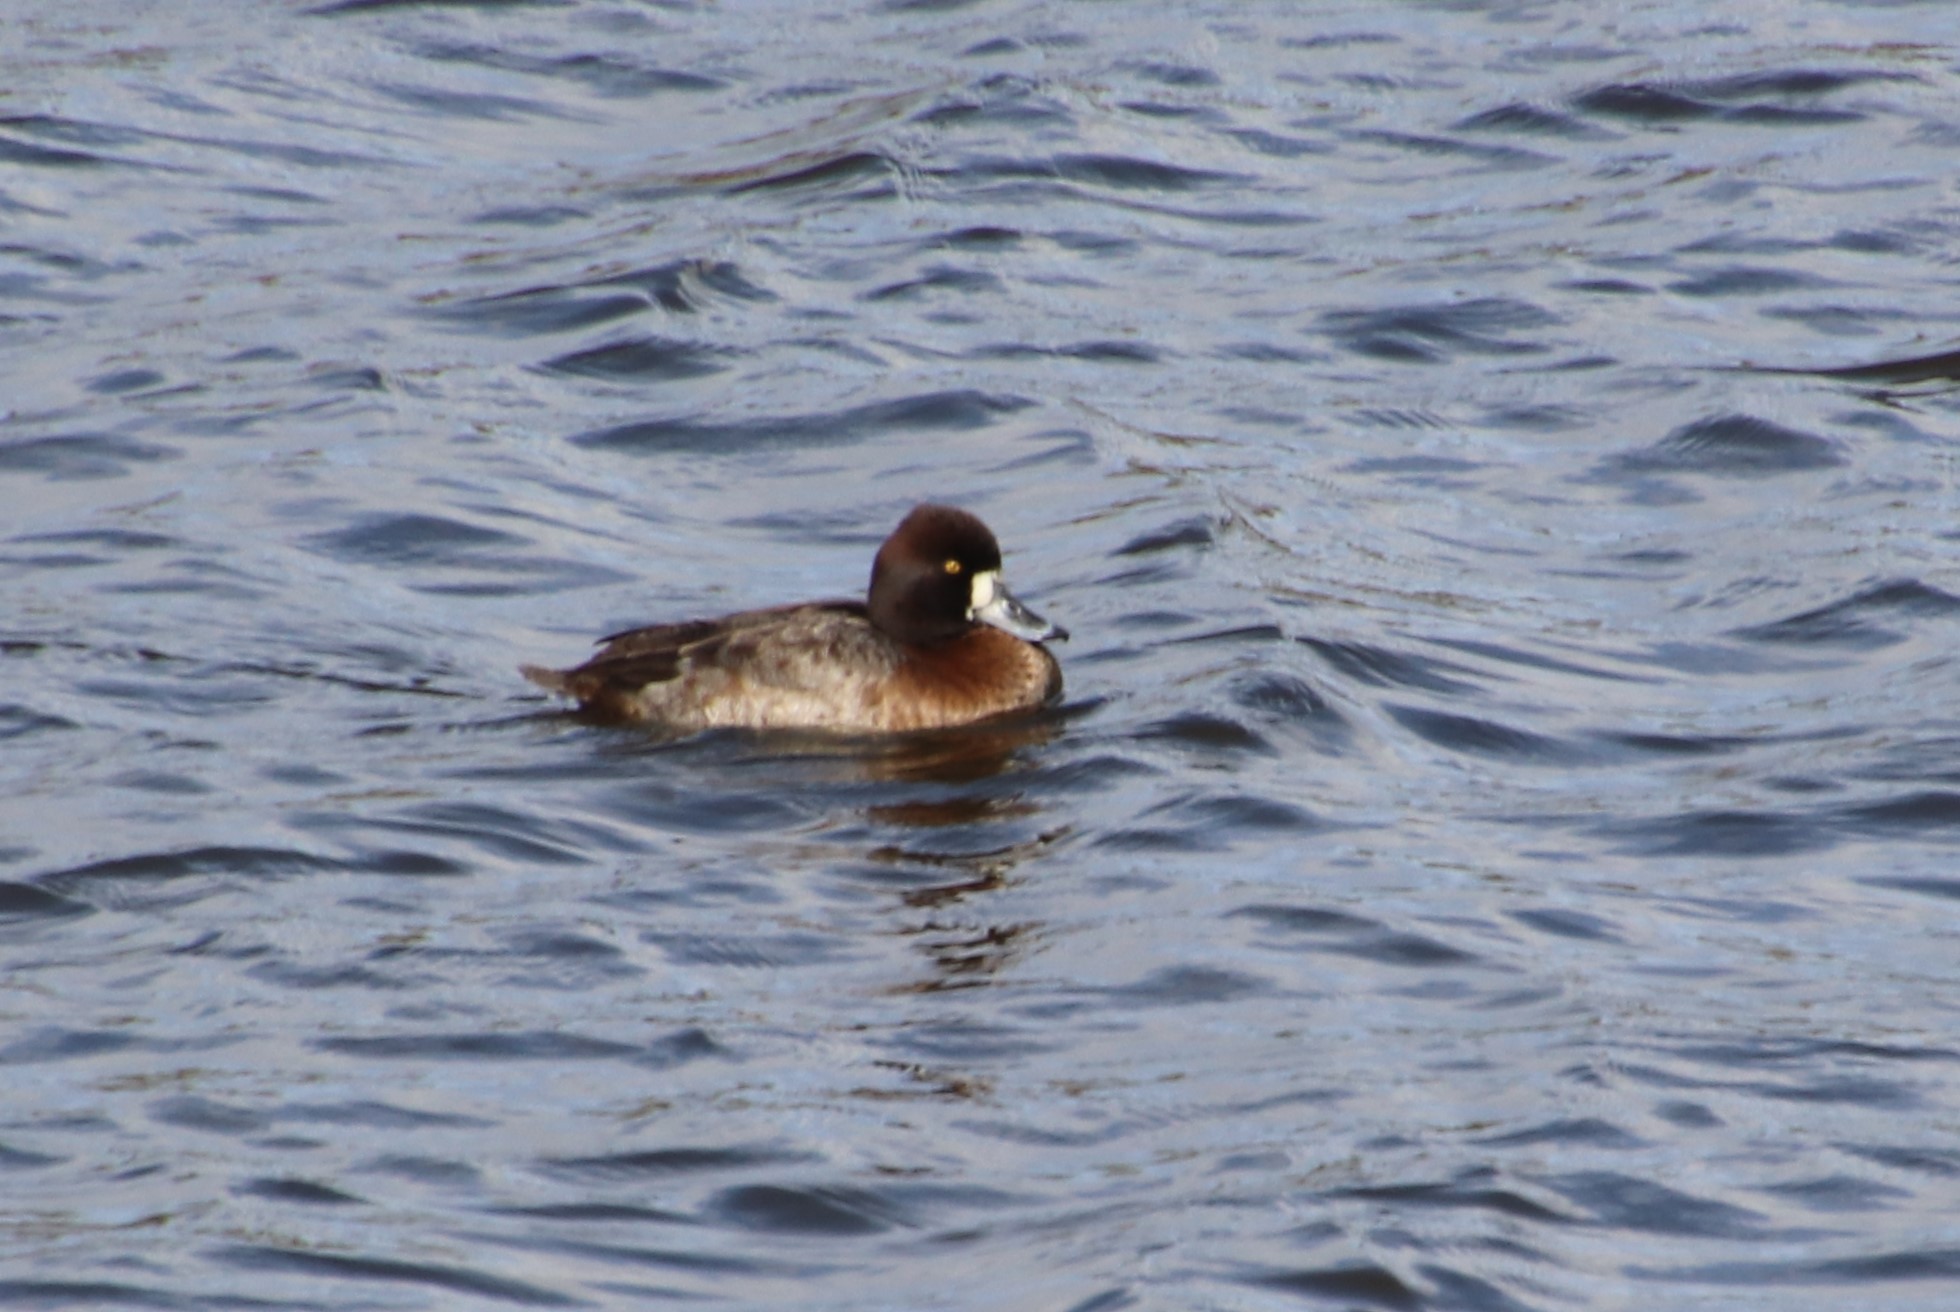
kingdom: Animalia
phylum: Chordata
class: Aves
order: Anseriformes
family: Anatidae
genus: Aythya
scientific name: Aythya affinis
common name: Lesser scaup
